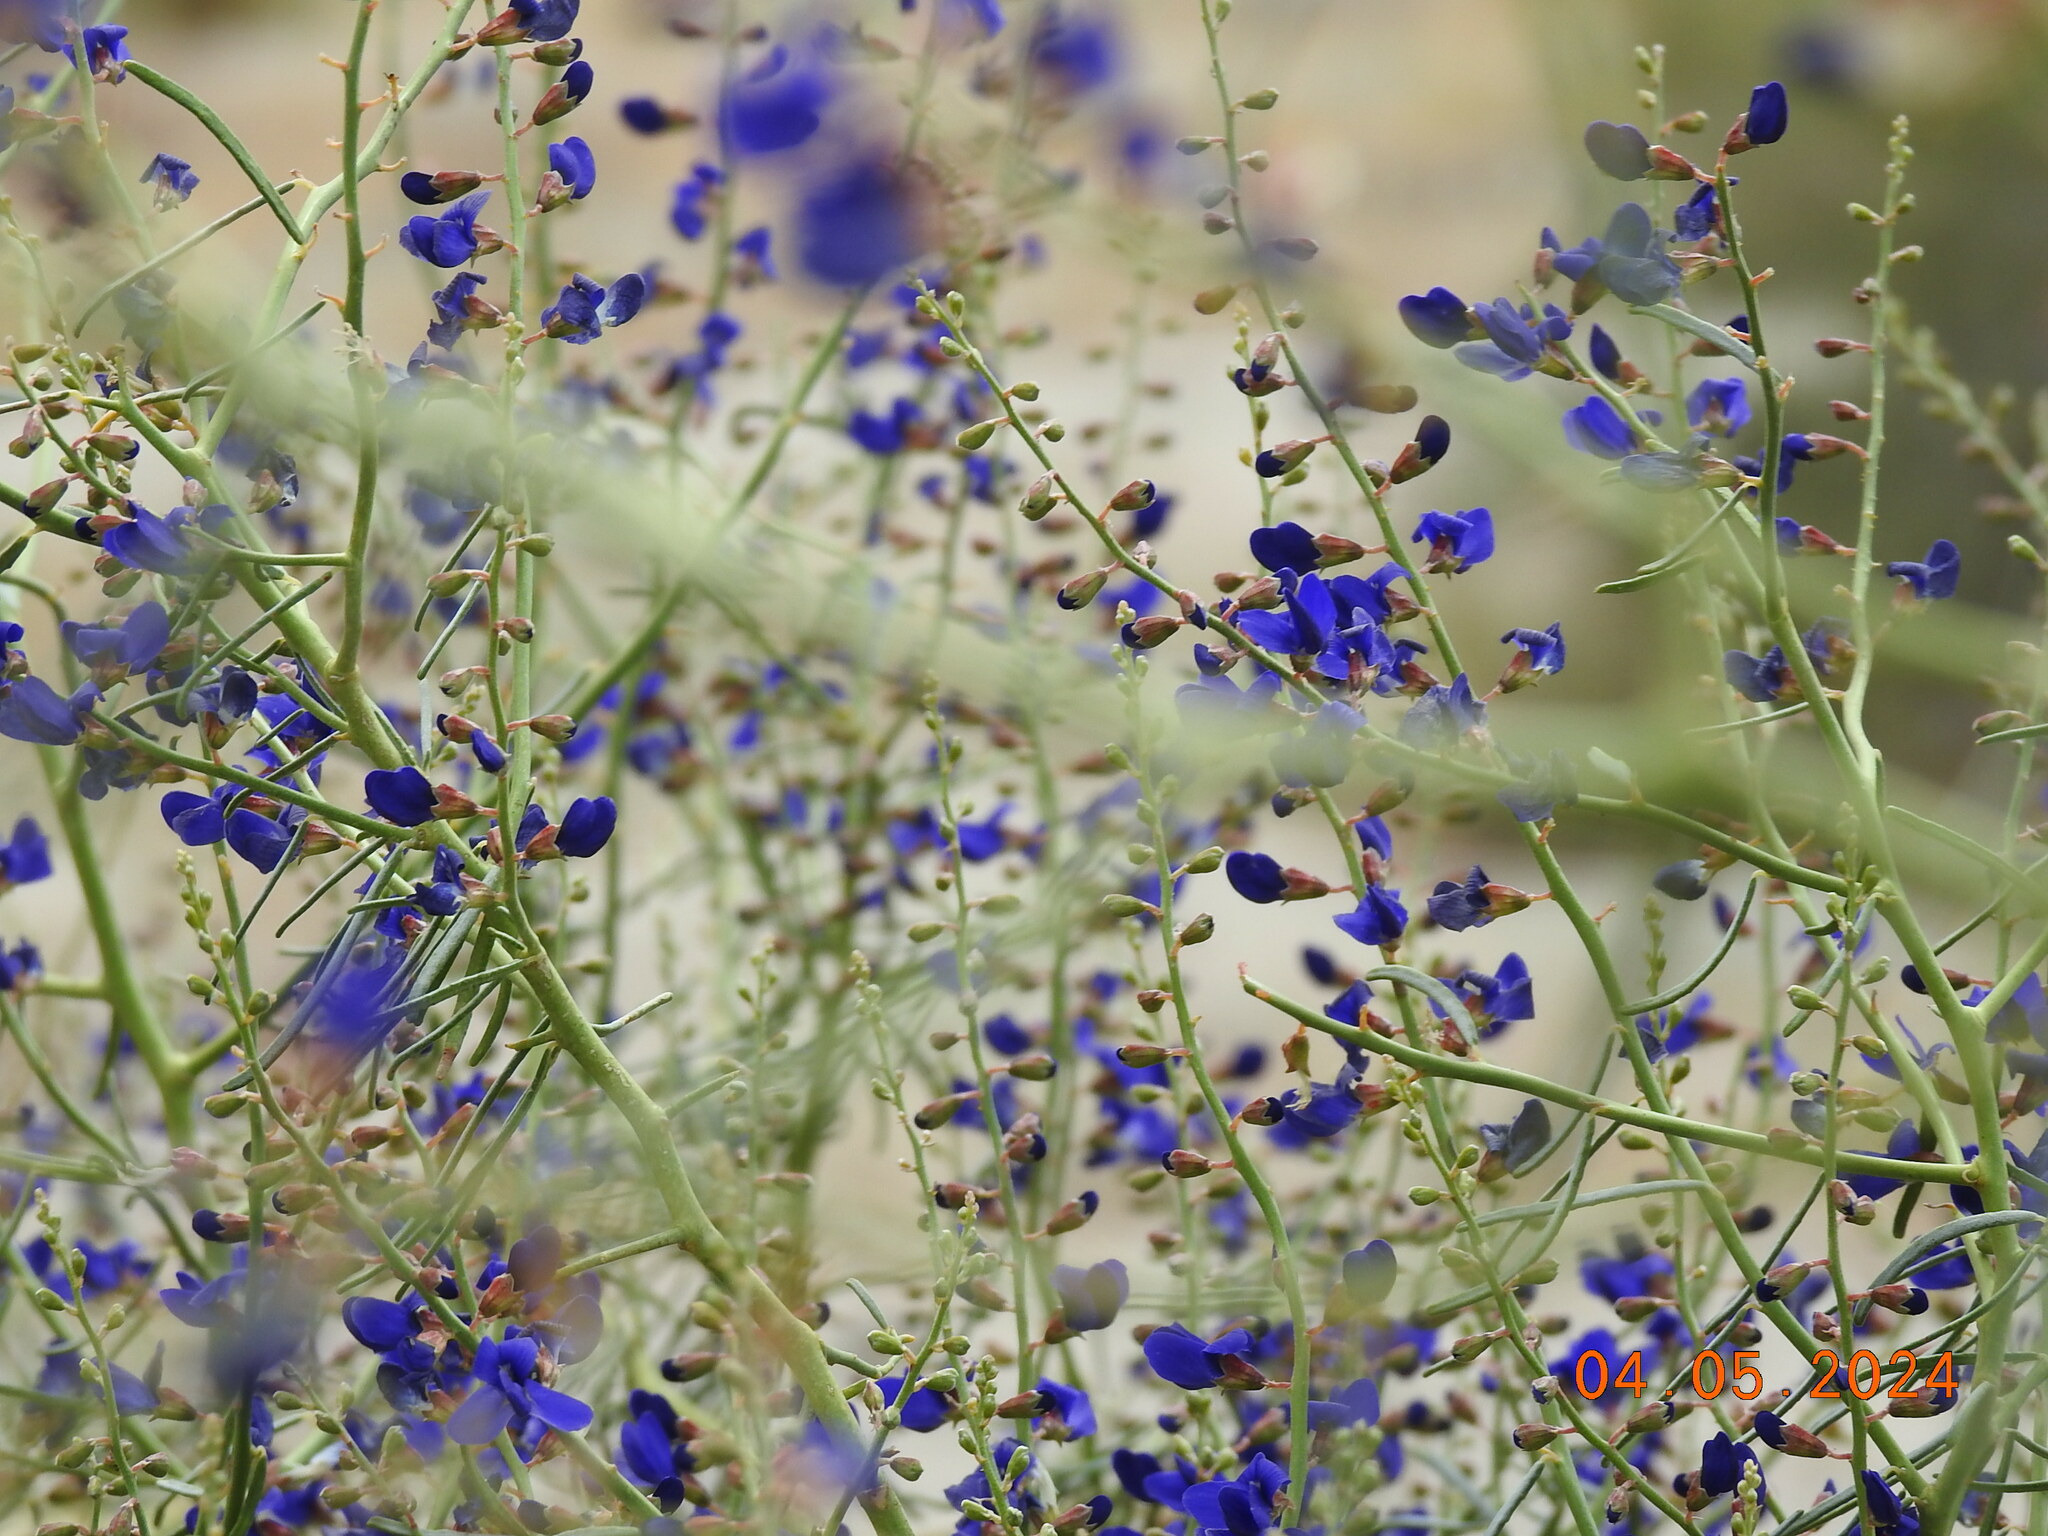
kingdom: Plantae
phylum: Tracheophyta
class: Magnoliopsida
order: Fabales
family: Fabaceae
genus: Psorothamnus
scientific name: Psorothamnus schottii
